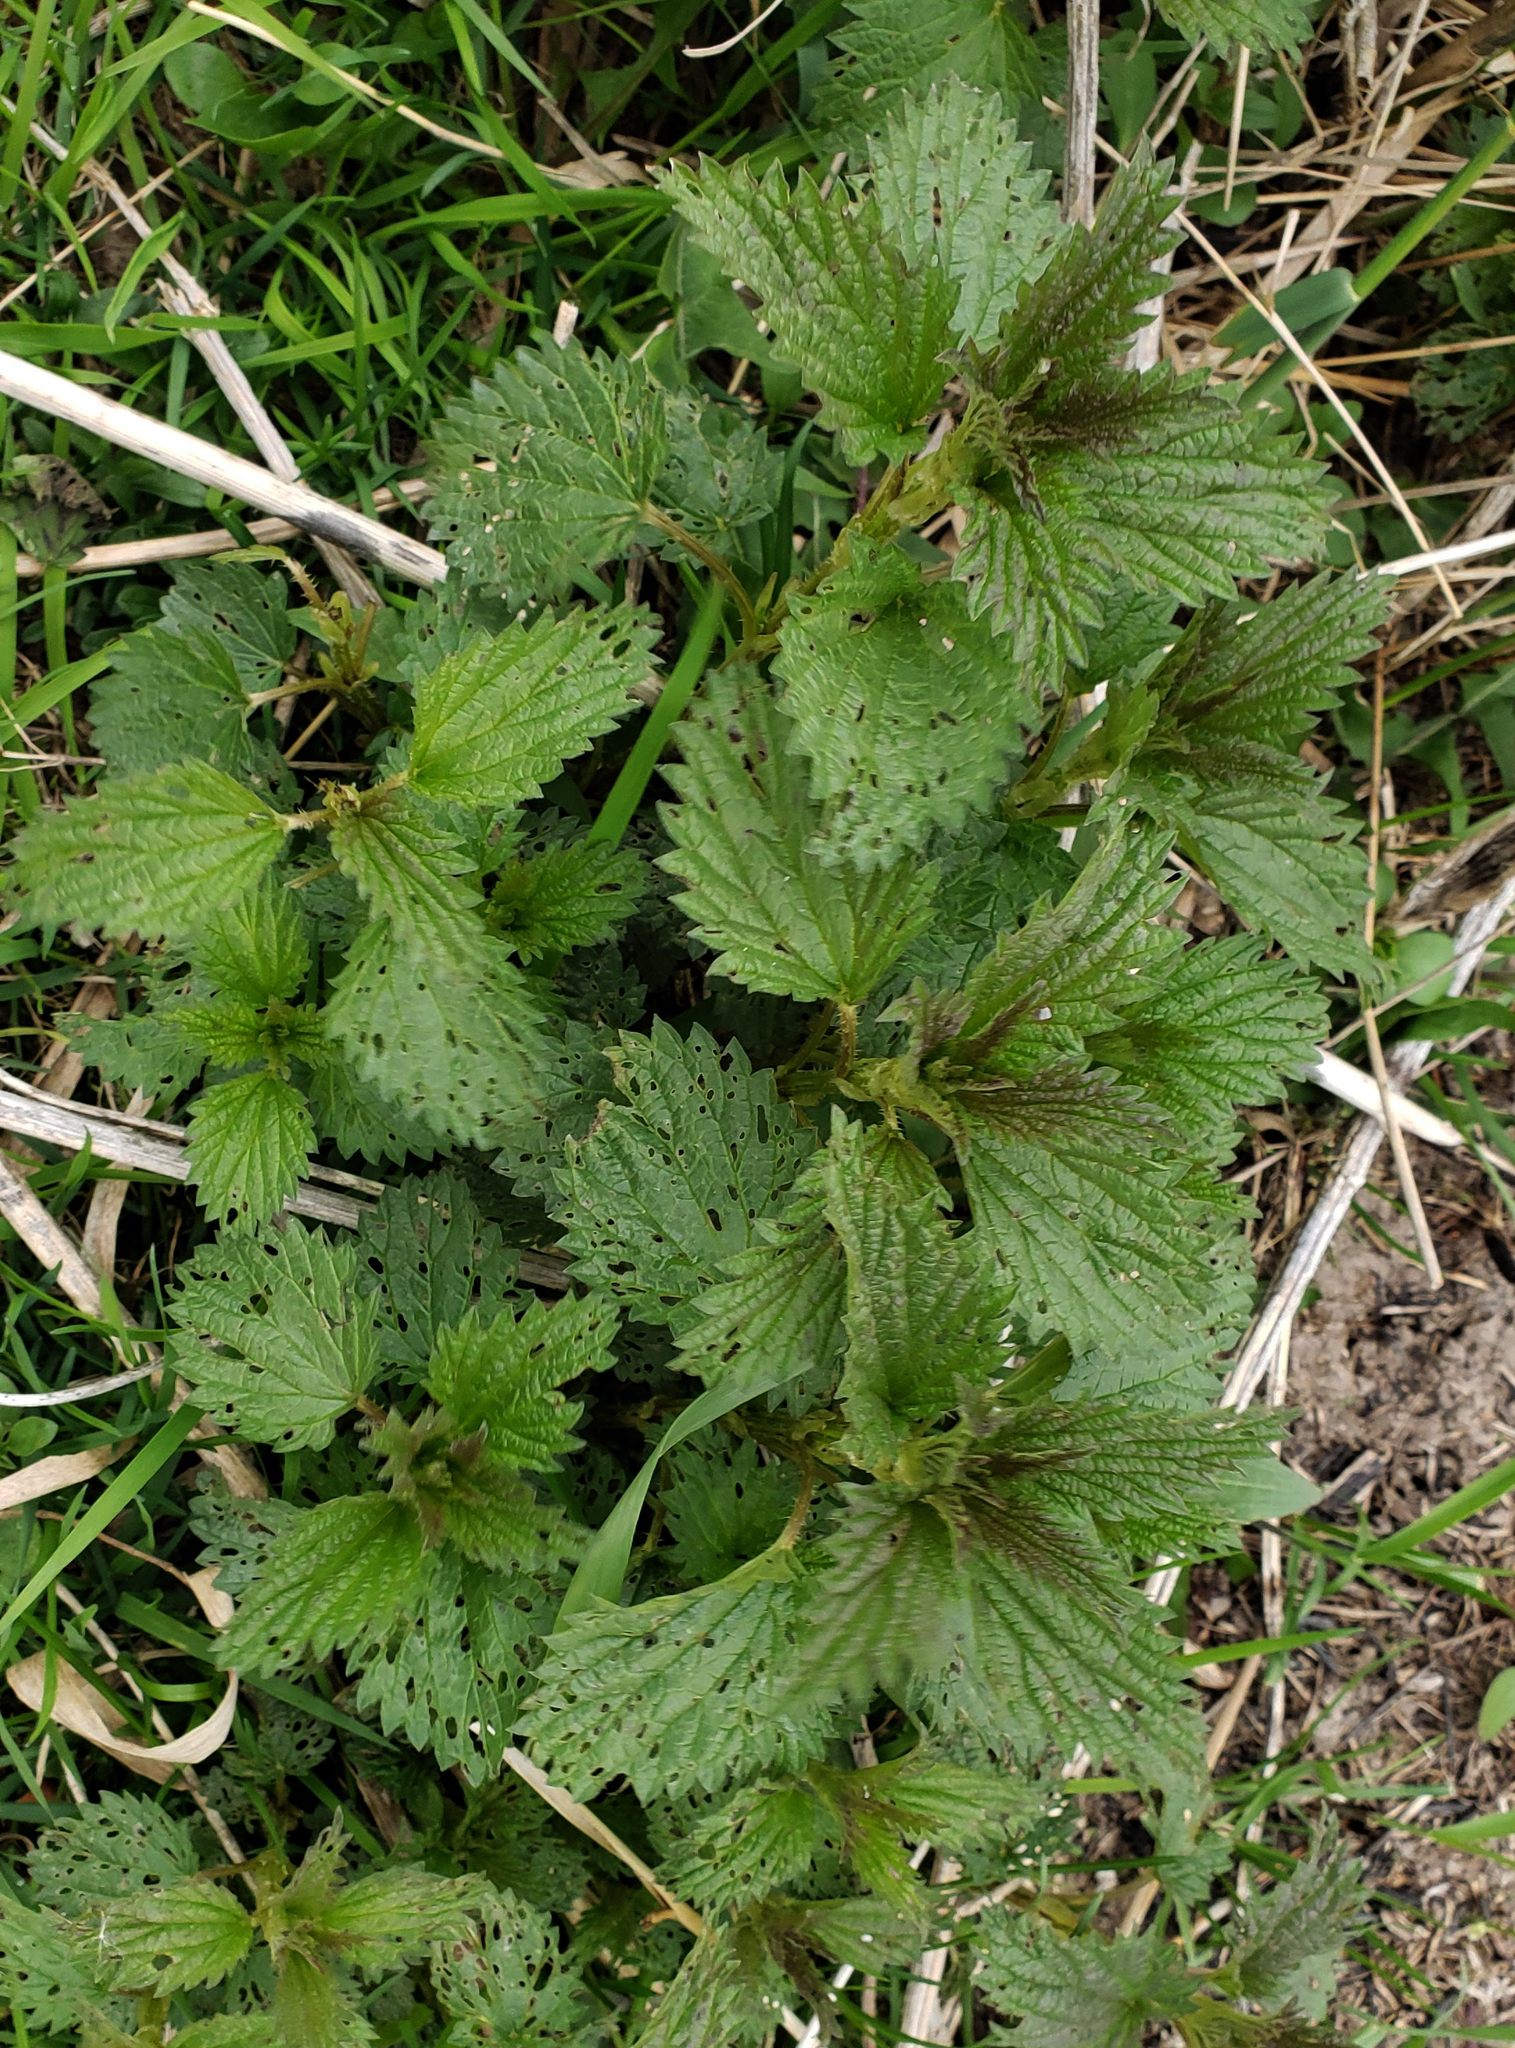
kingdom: Plantae
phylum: Tracheophyta
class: Magnoliopsida
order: Rosales
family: Urticaceae
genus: Urtica
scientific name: Urtica dioica
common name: Common nettle
